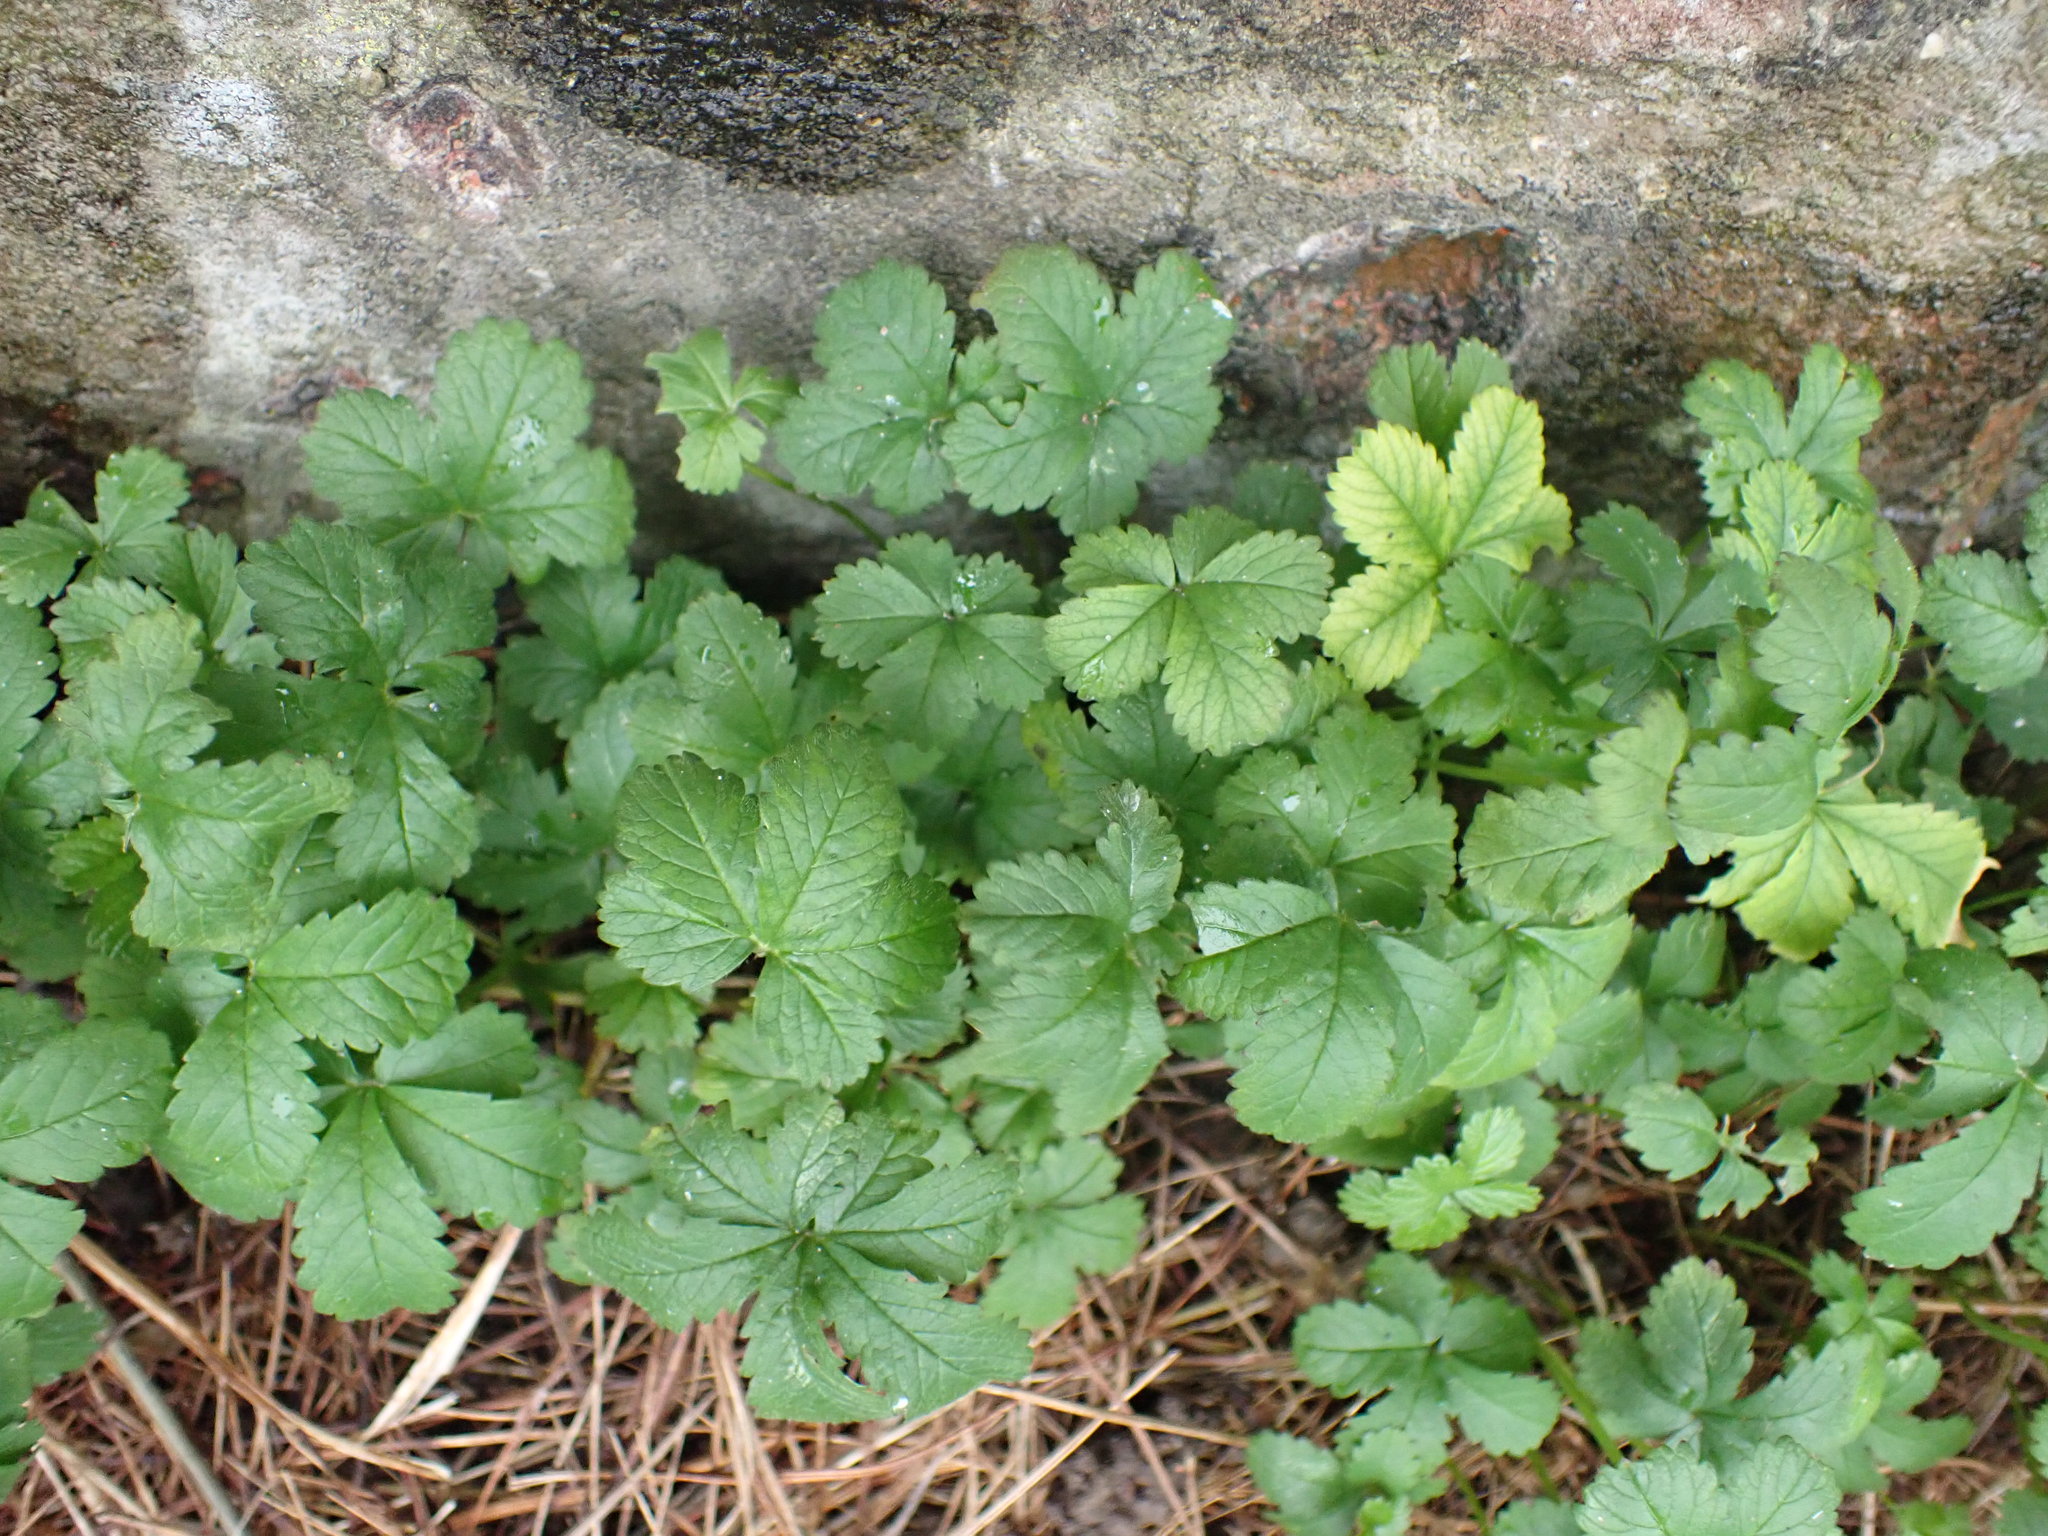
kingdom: Plantae
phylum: Tracheophyta
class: Magnoliopsida
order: Rosales
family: Rosaceae
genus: Potentilla
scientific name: Potentilla reptans
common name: Creeping cinquefoil
